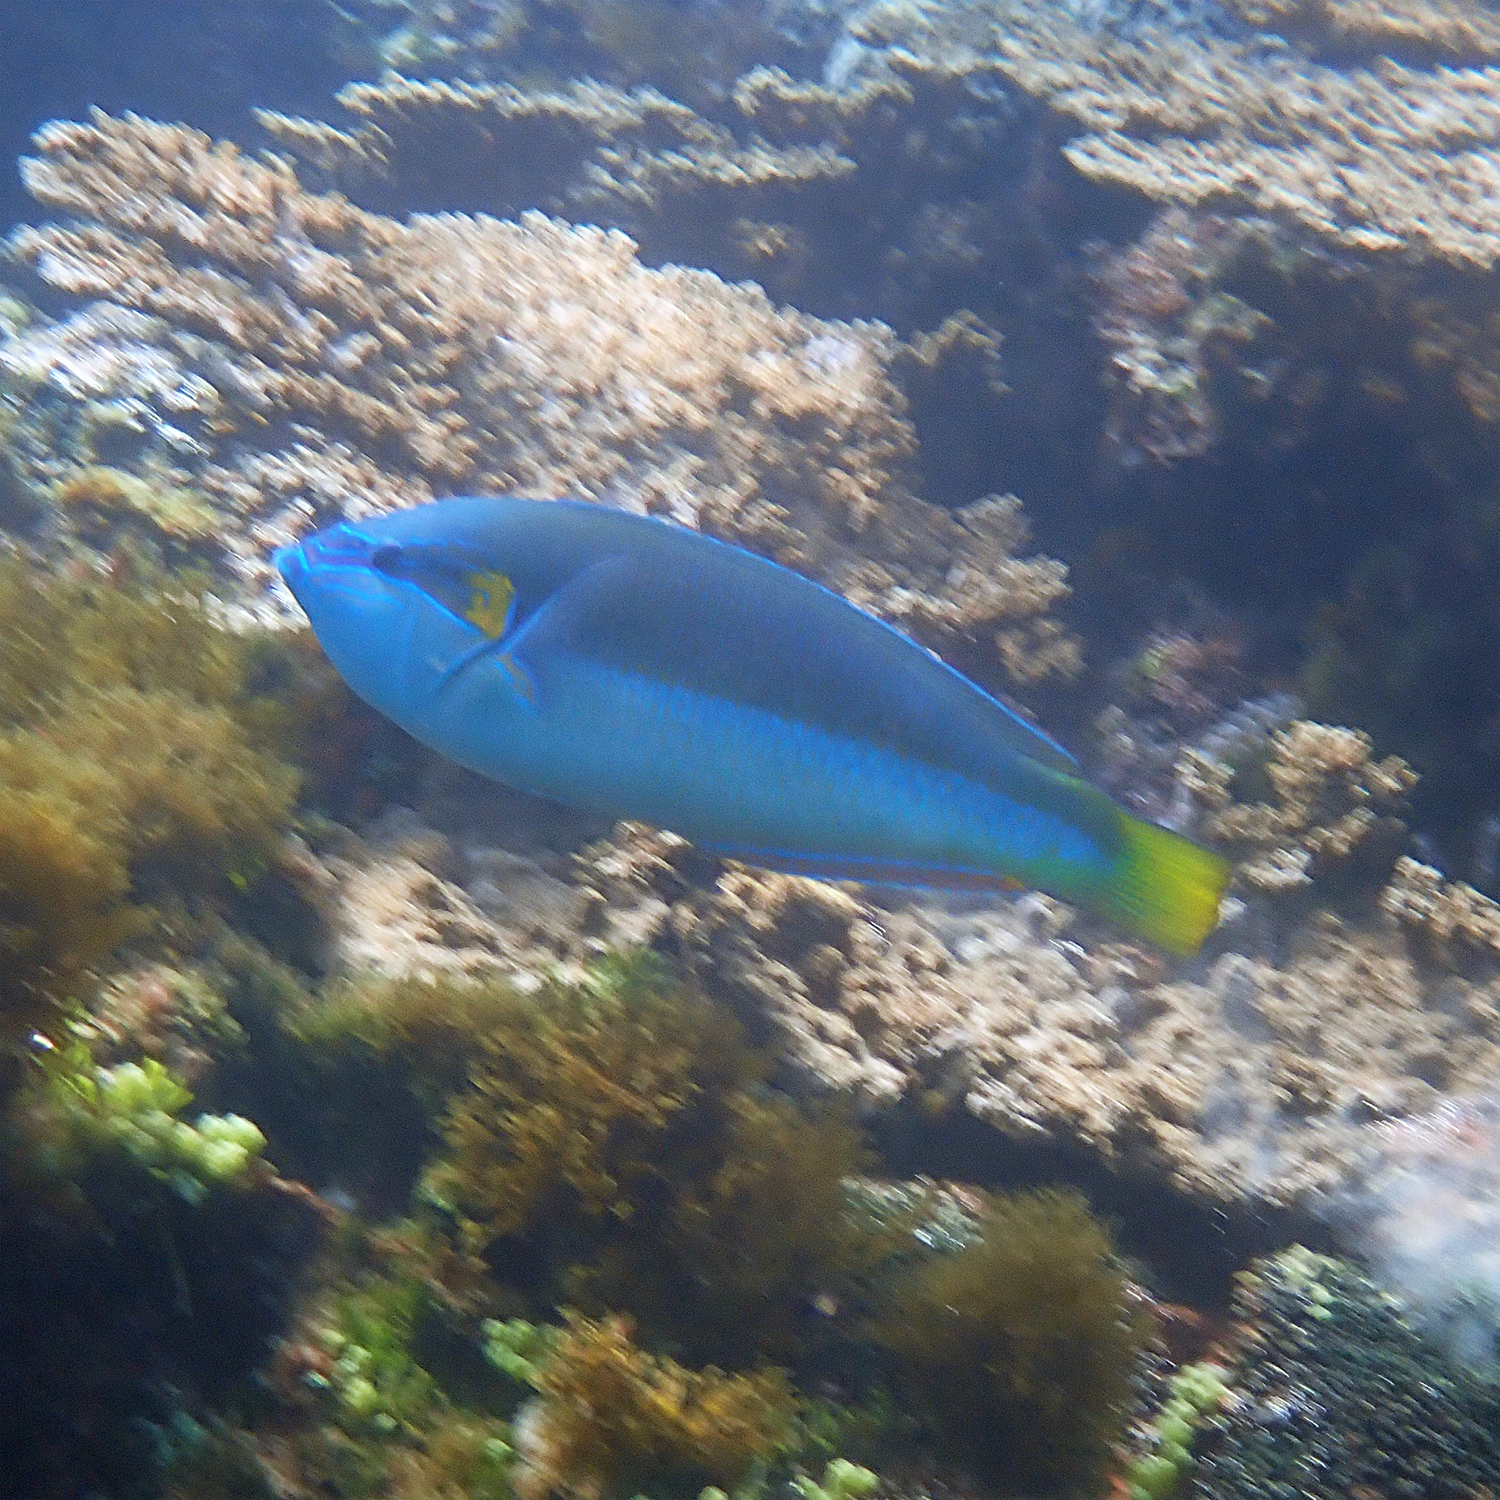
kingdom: Animalia
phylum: Chordata
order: Perciformes
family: Labridae
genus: Anampses
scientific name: Anampses elegans
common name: Elegant wrasse
